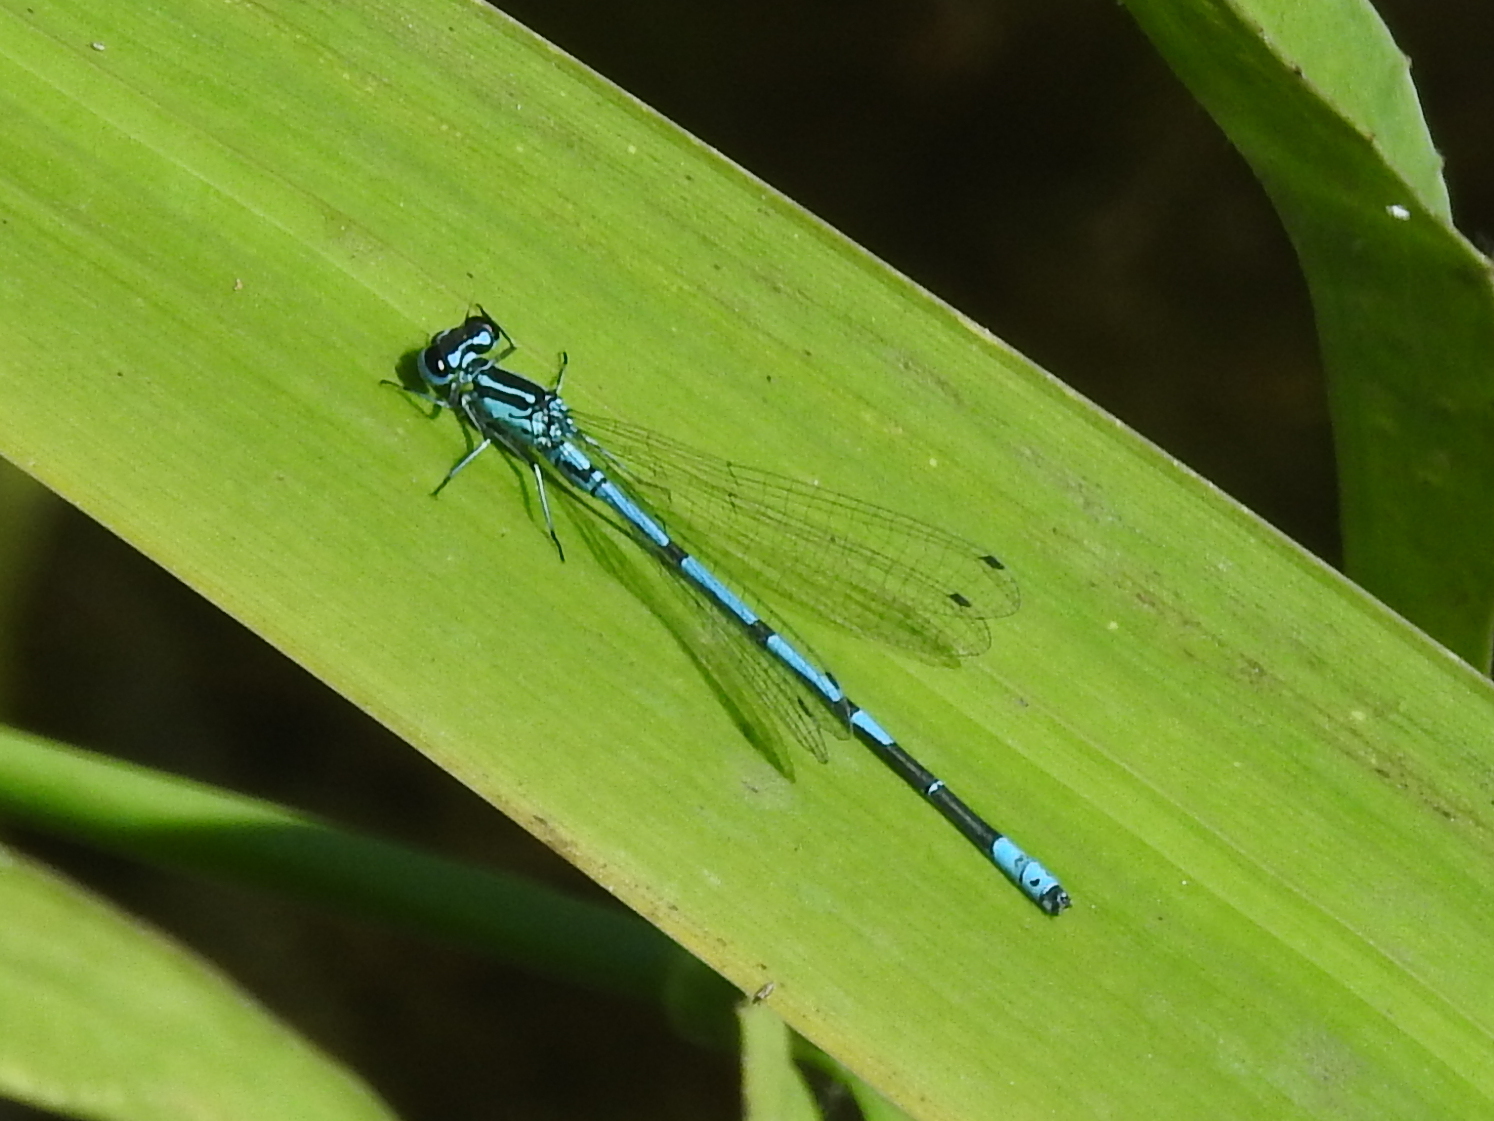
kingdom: Animalia
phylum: Arthropoda
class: Insecta
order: Odonata
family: Coenagrionidae
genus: Coenagrion
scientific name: Coenagrion puella
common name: Azure damselfly
